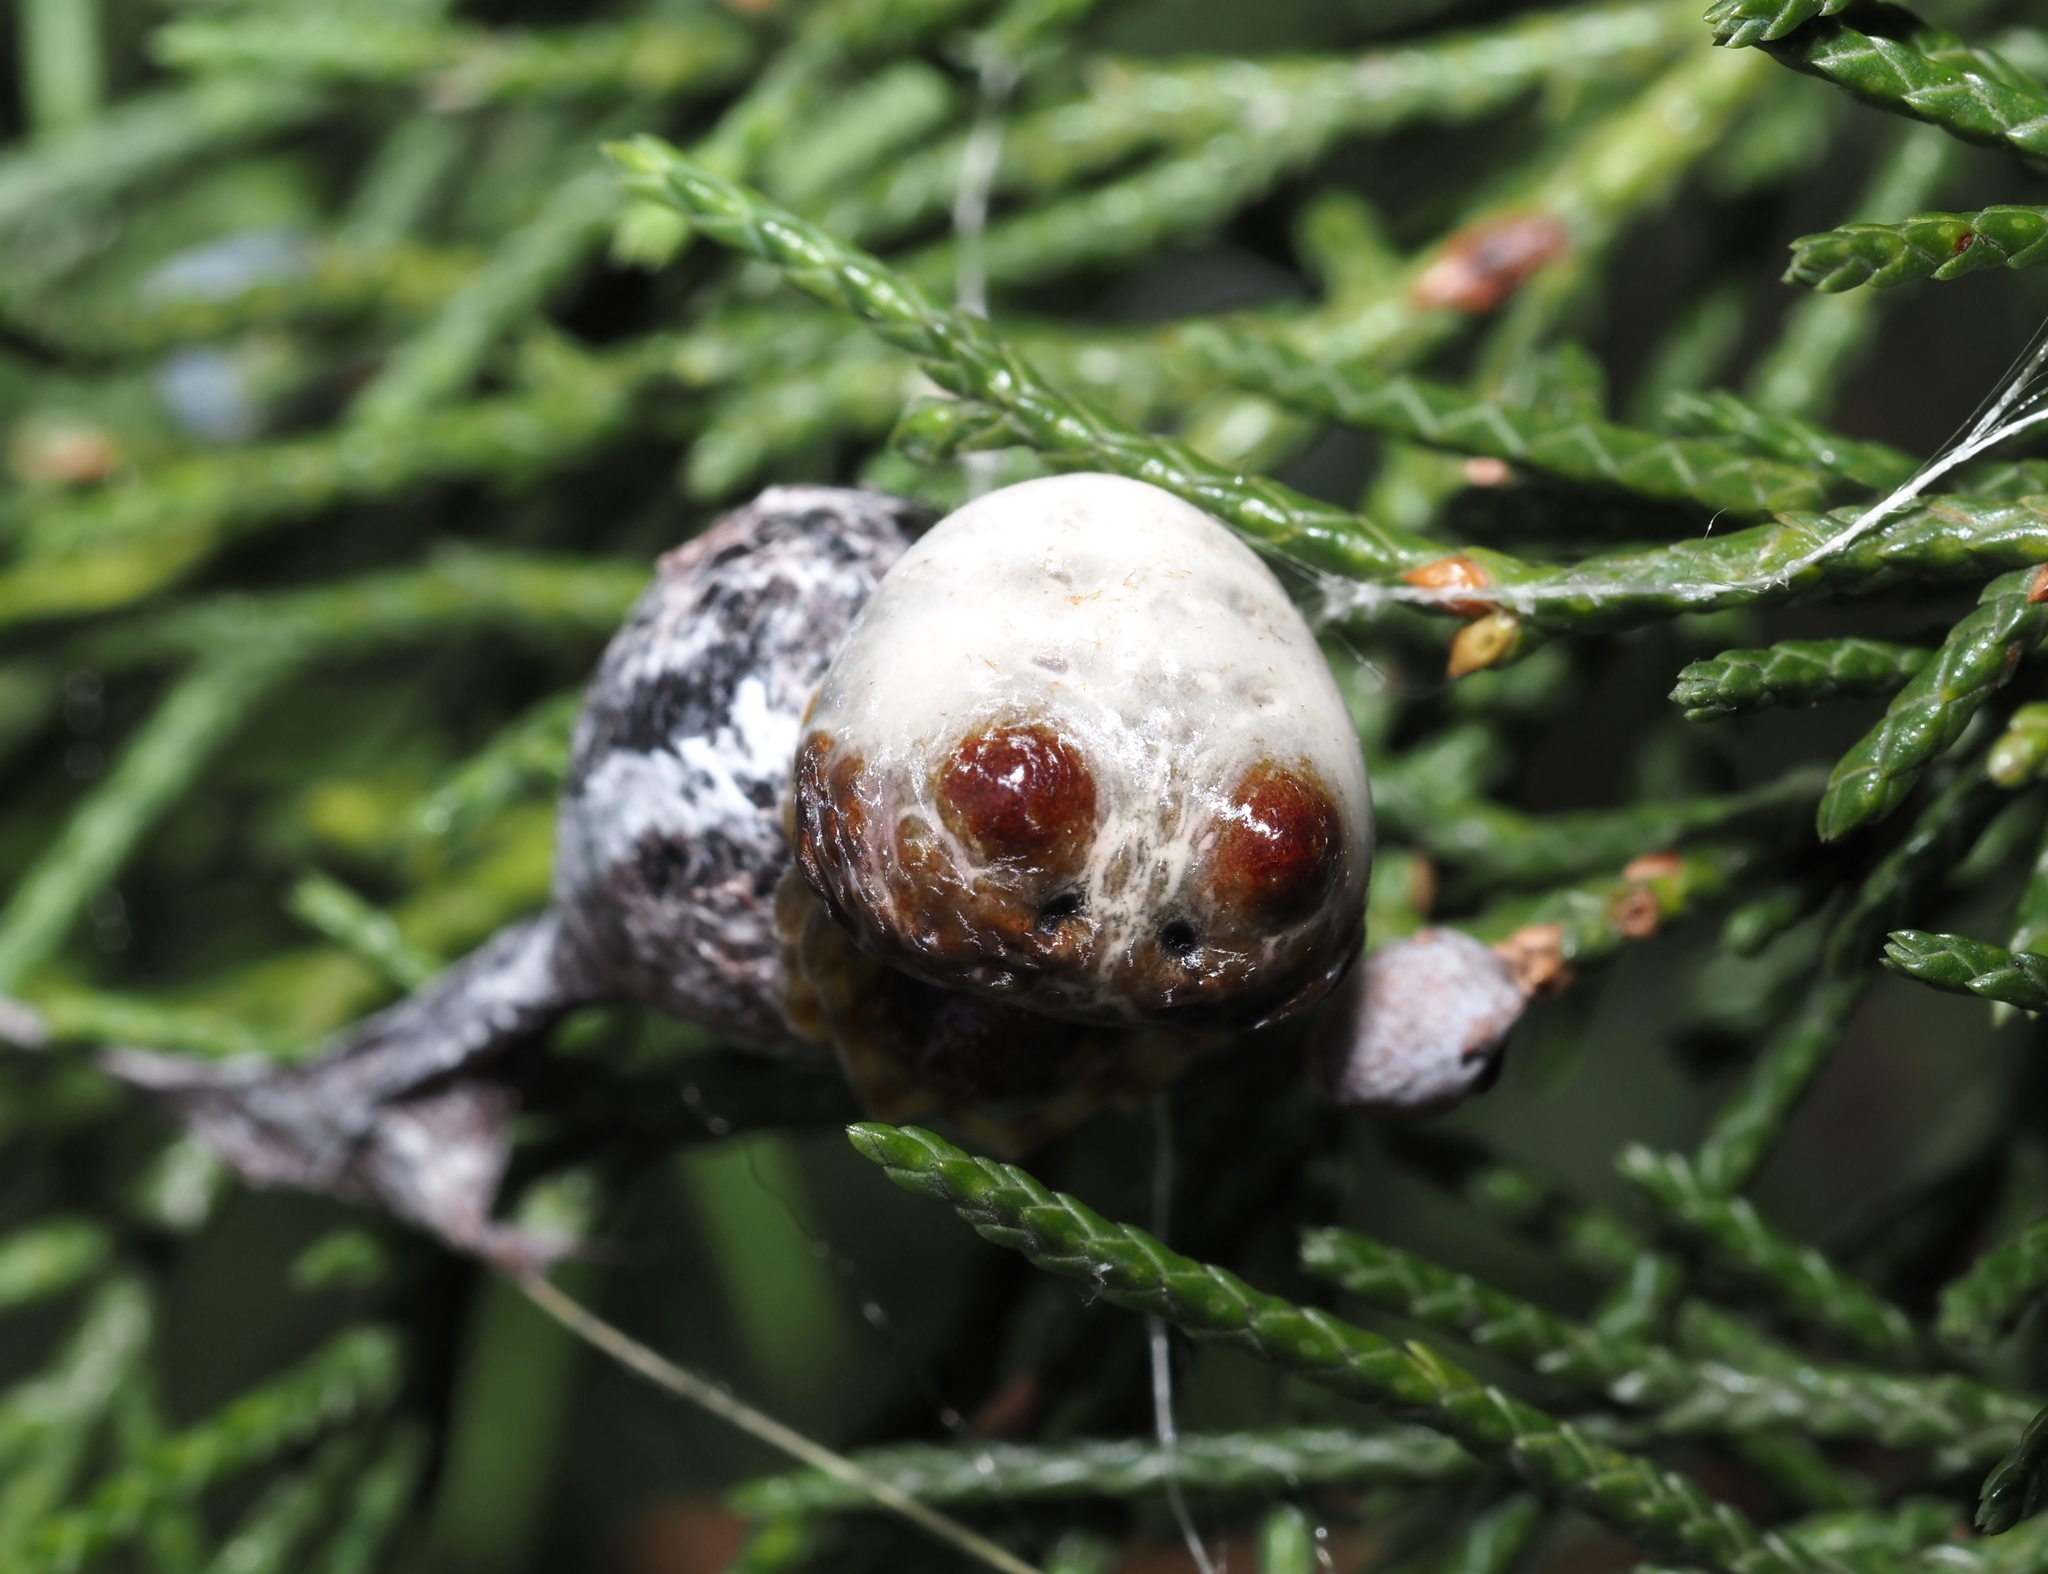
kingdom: Animalia
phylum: Arthropoda
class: Arachnida
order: Araneae
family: Araneidae
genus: Mastophora
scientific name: Mastophora hutchinsoni
